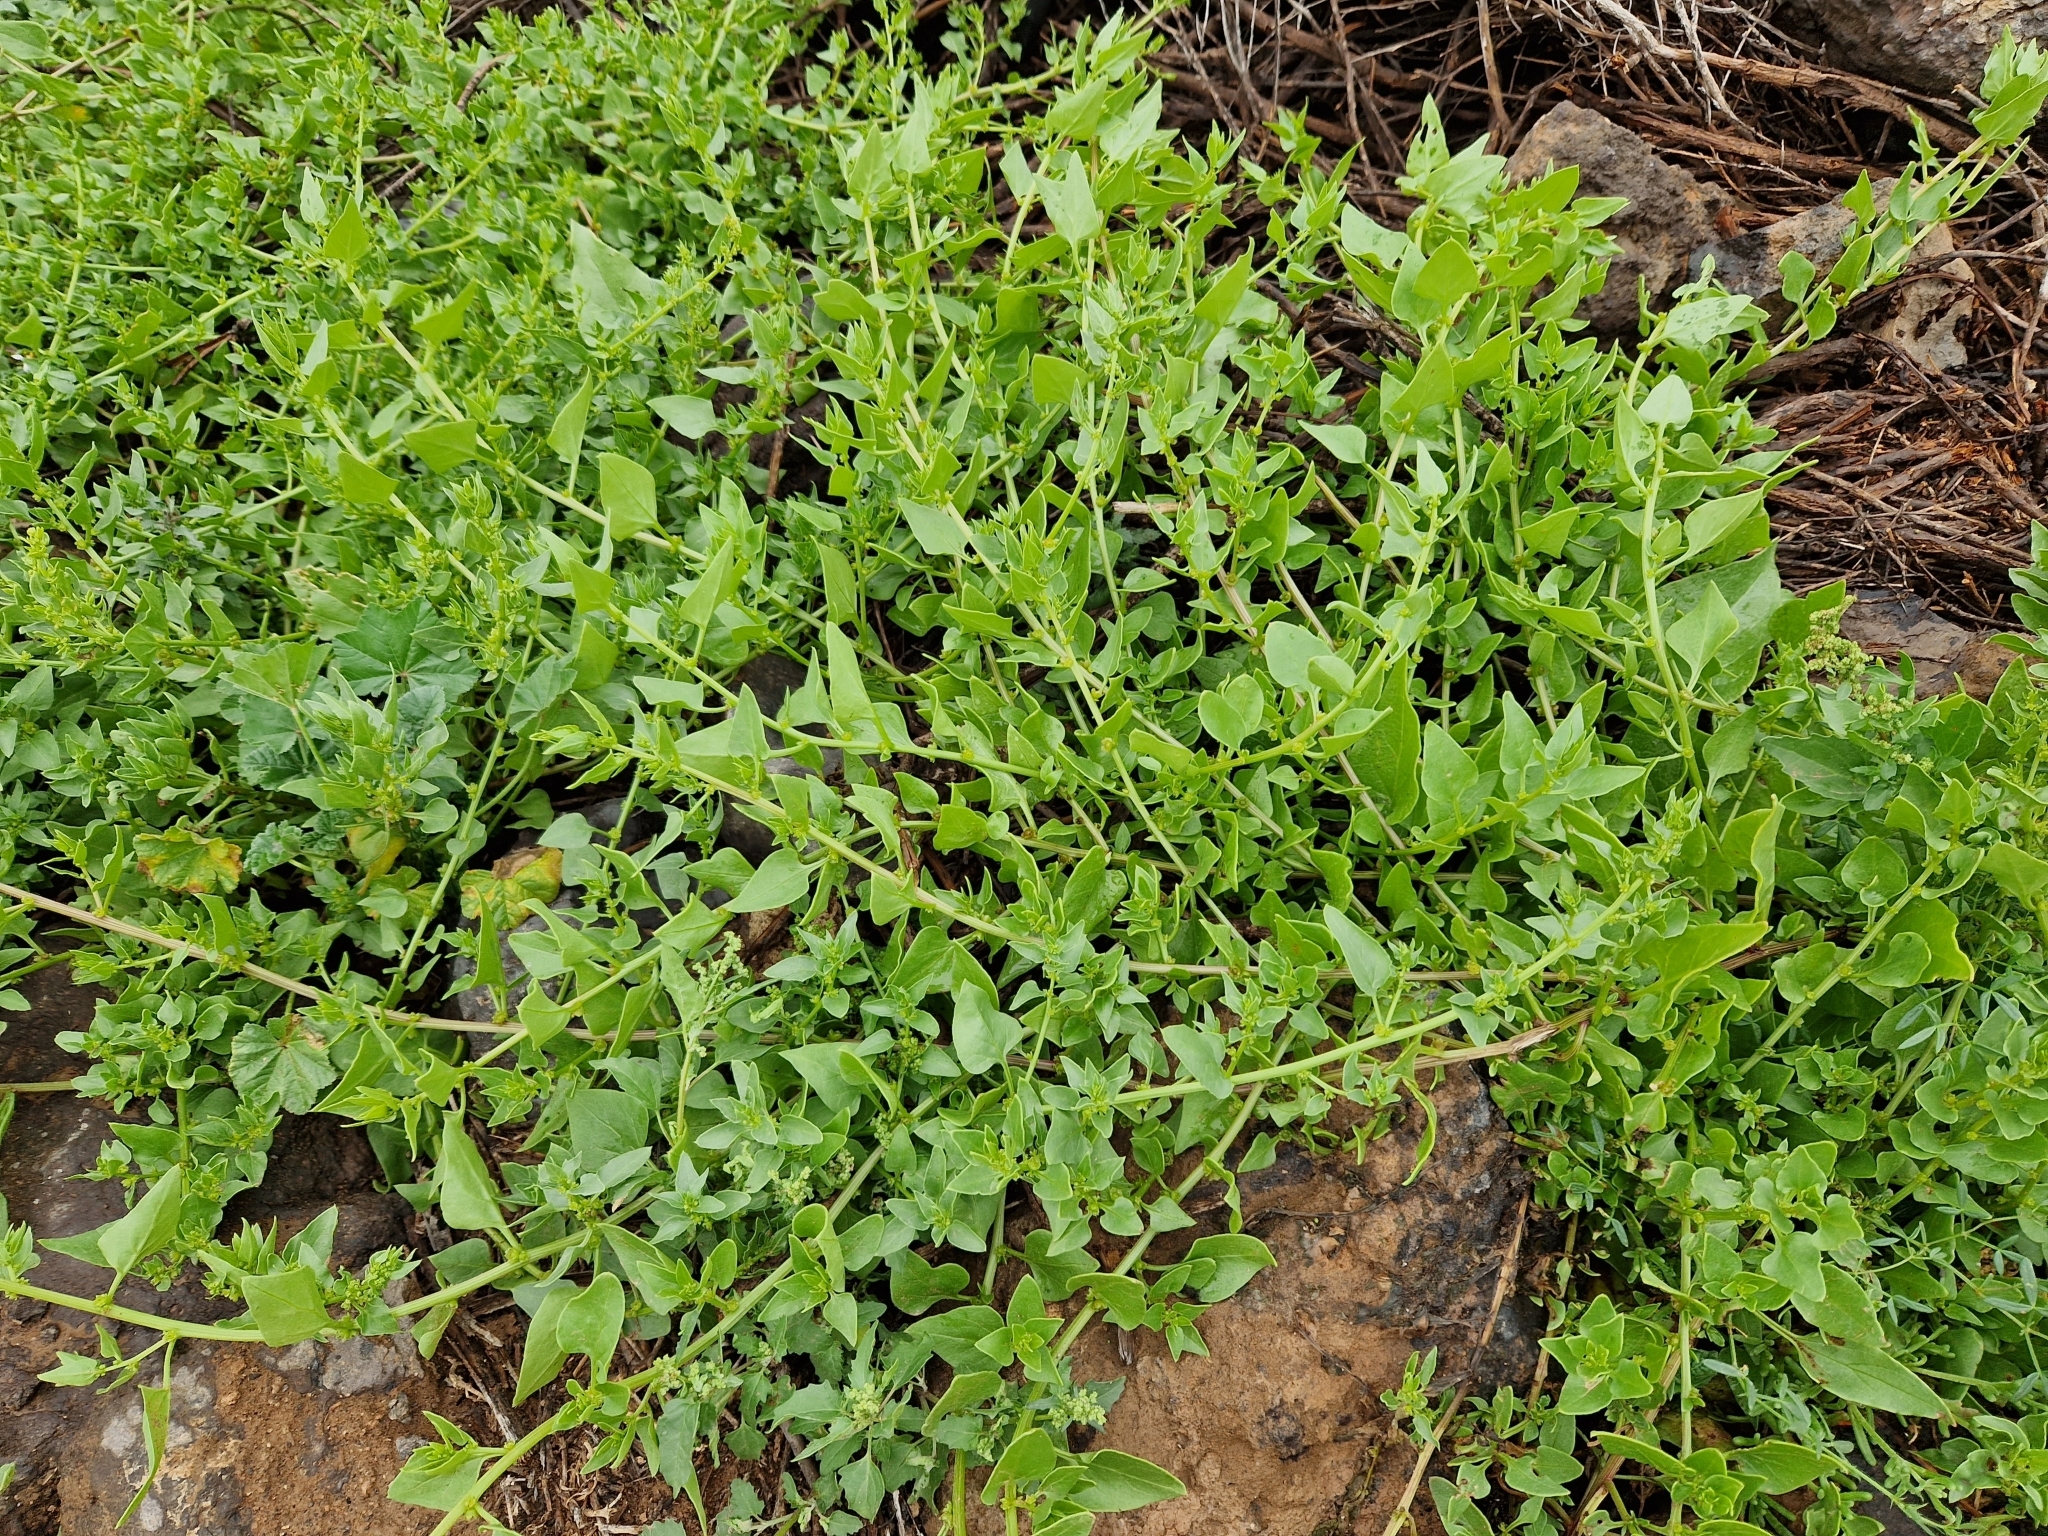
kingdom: Plantae
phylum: Tracheophyta
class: Magnoliopsida
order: Caryophyllales
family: Amaranthaceae
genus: Patellifolia
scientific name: Patellifolia procumbens
